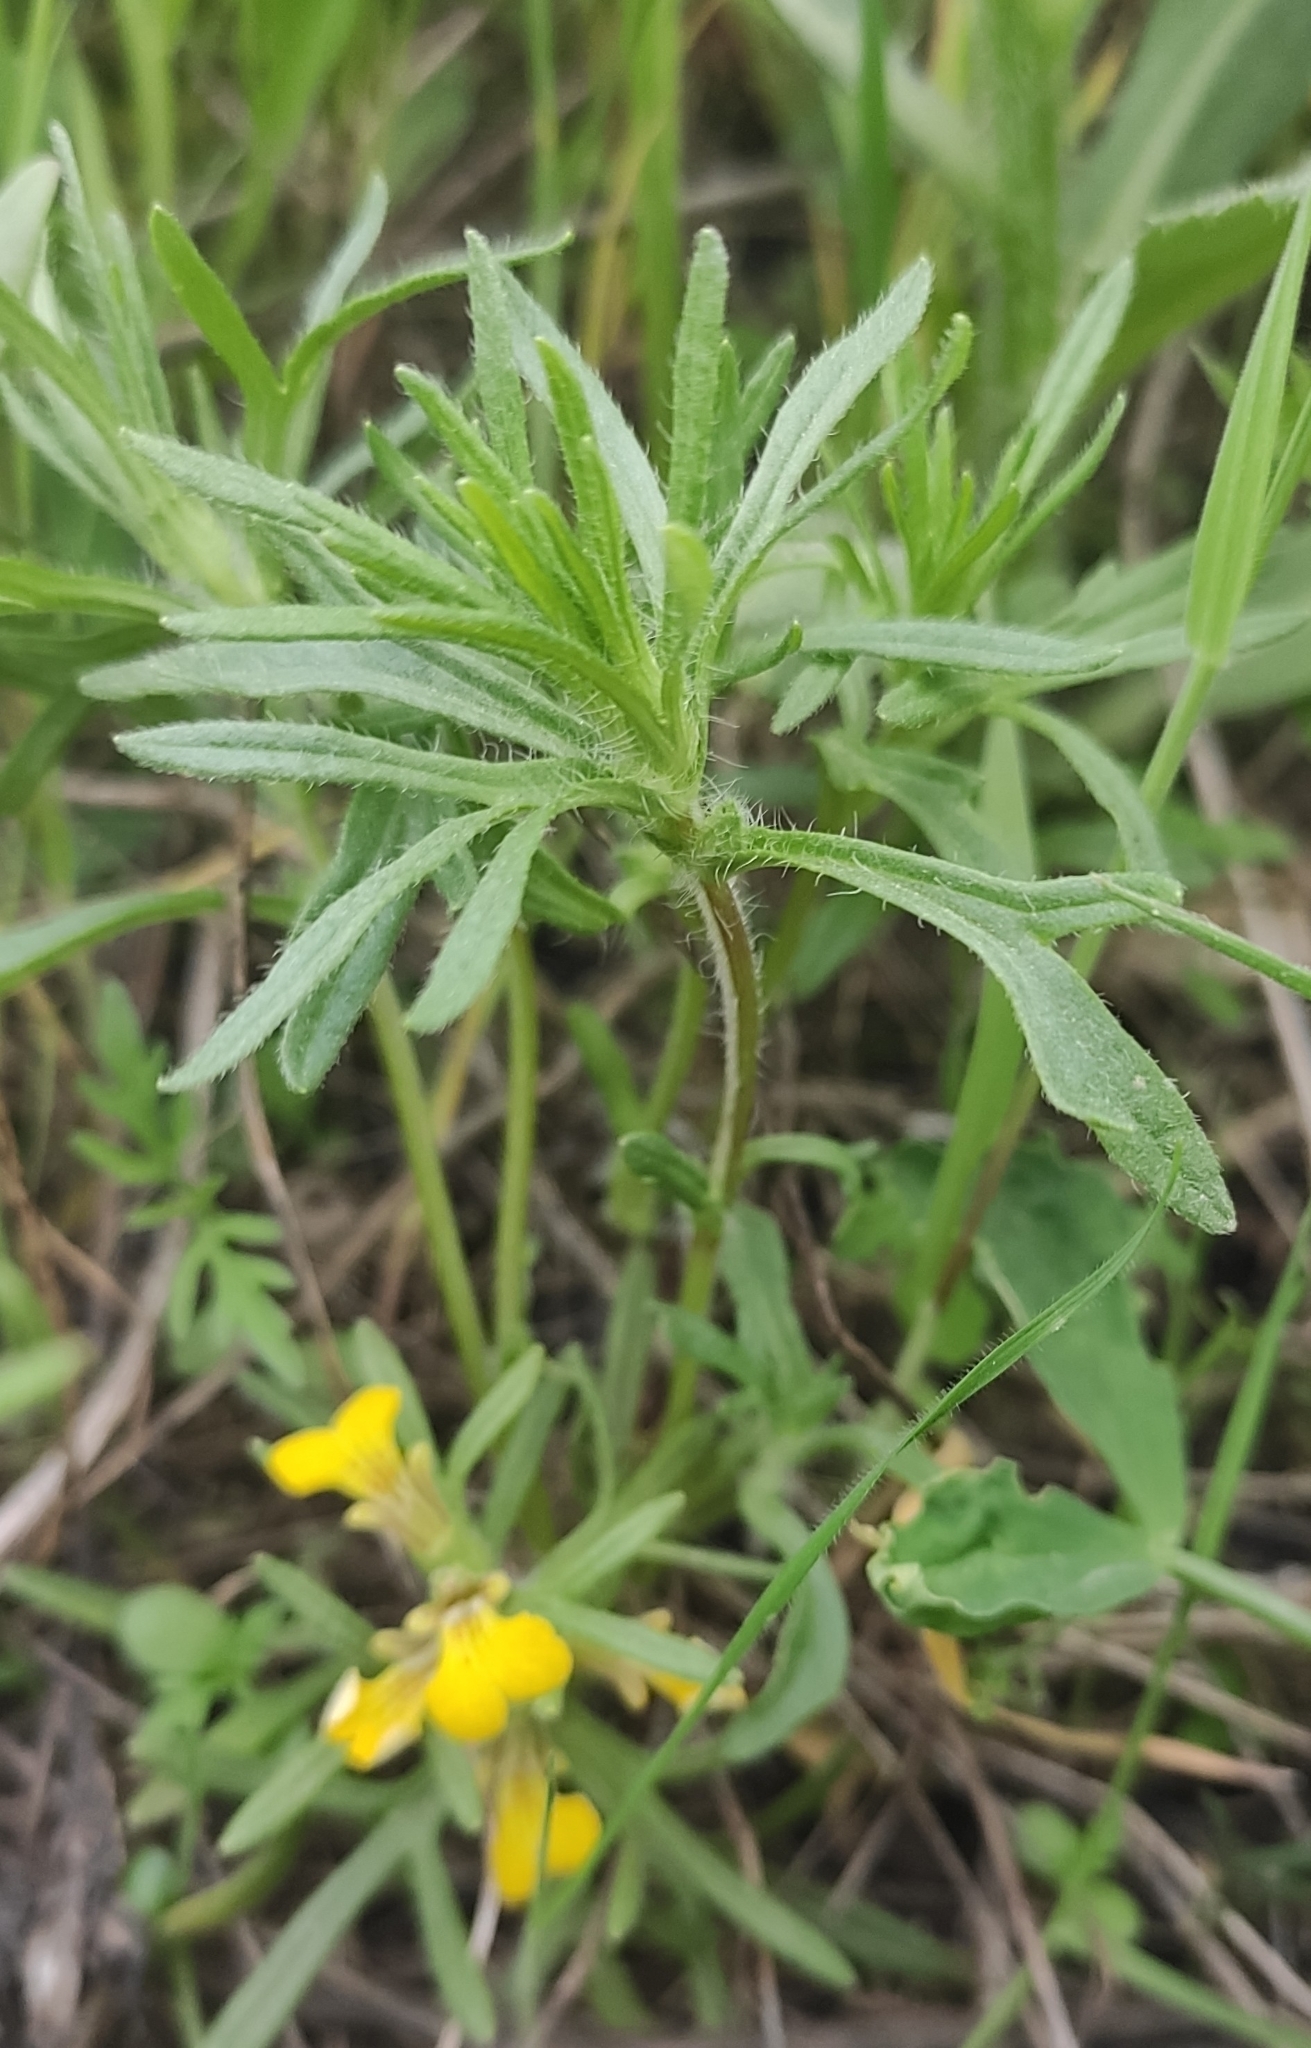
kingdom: Plantae
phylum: Tracheophyta
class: Magnoliopsida
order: Lamiales
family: Lamiaceae
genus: Ajuga
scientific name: Ajuga chamaepitys
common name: Ground-pine
